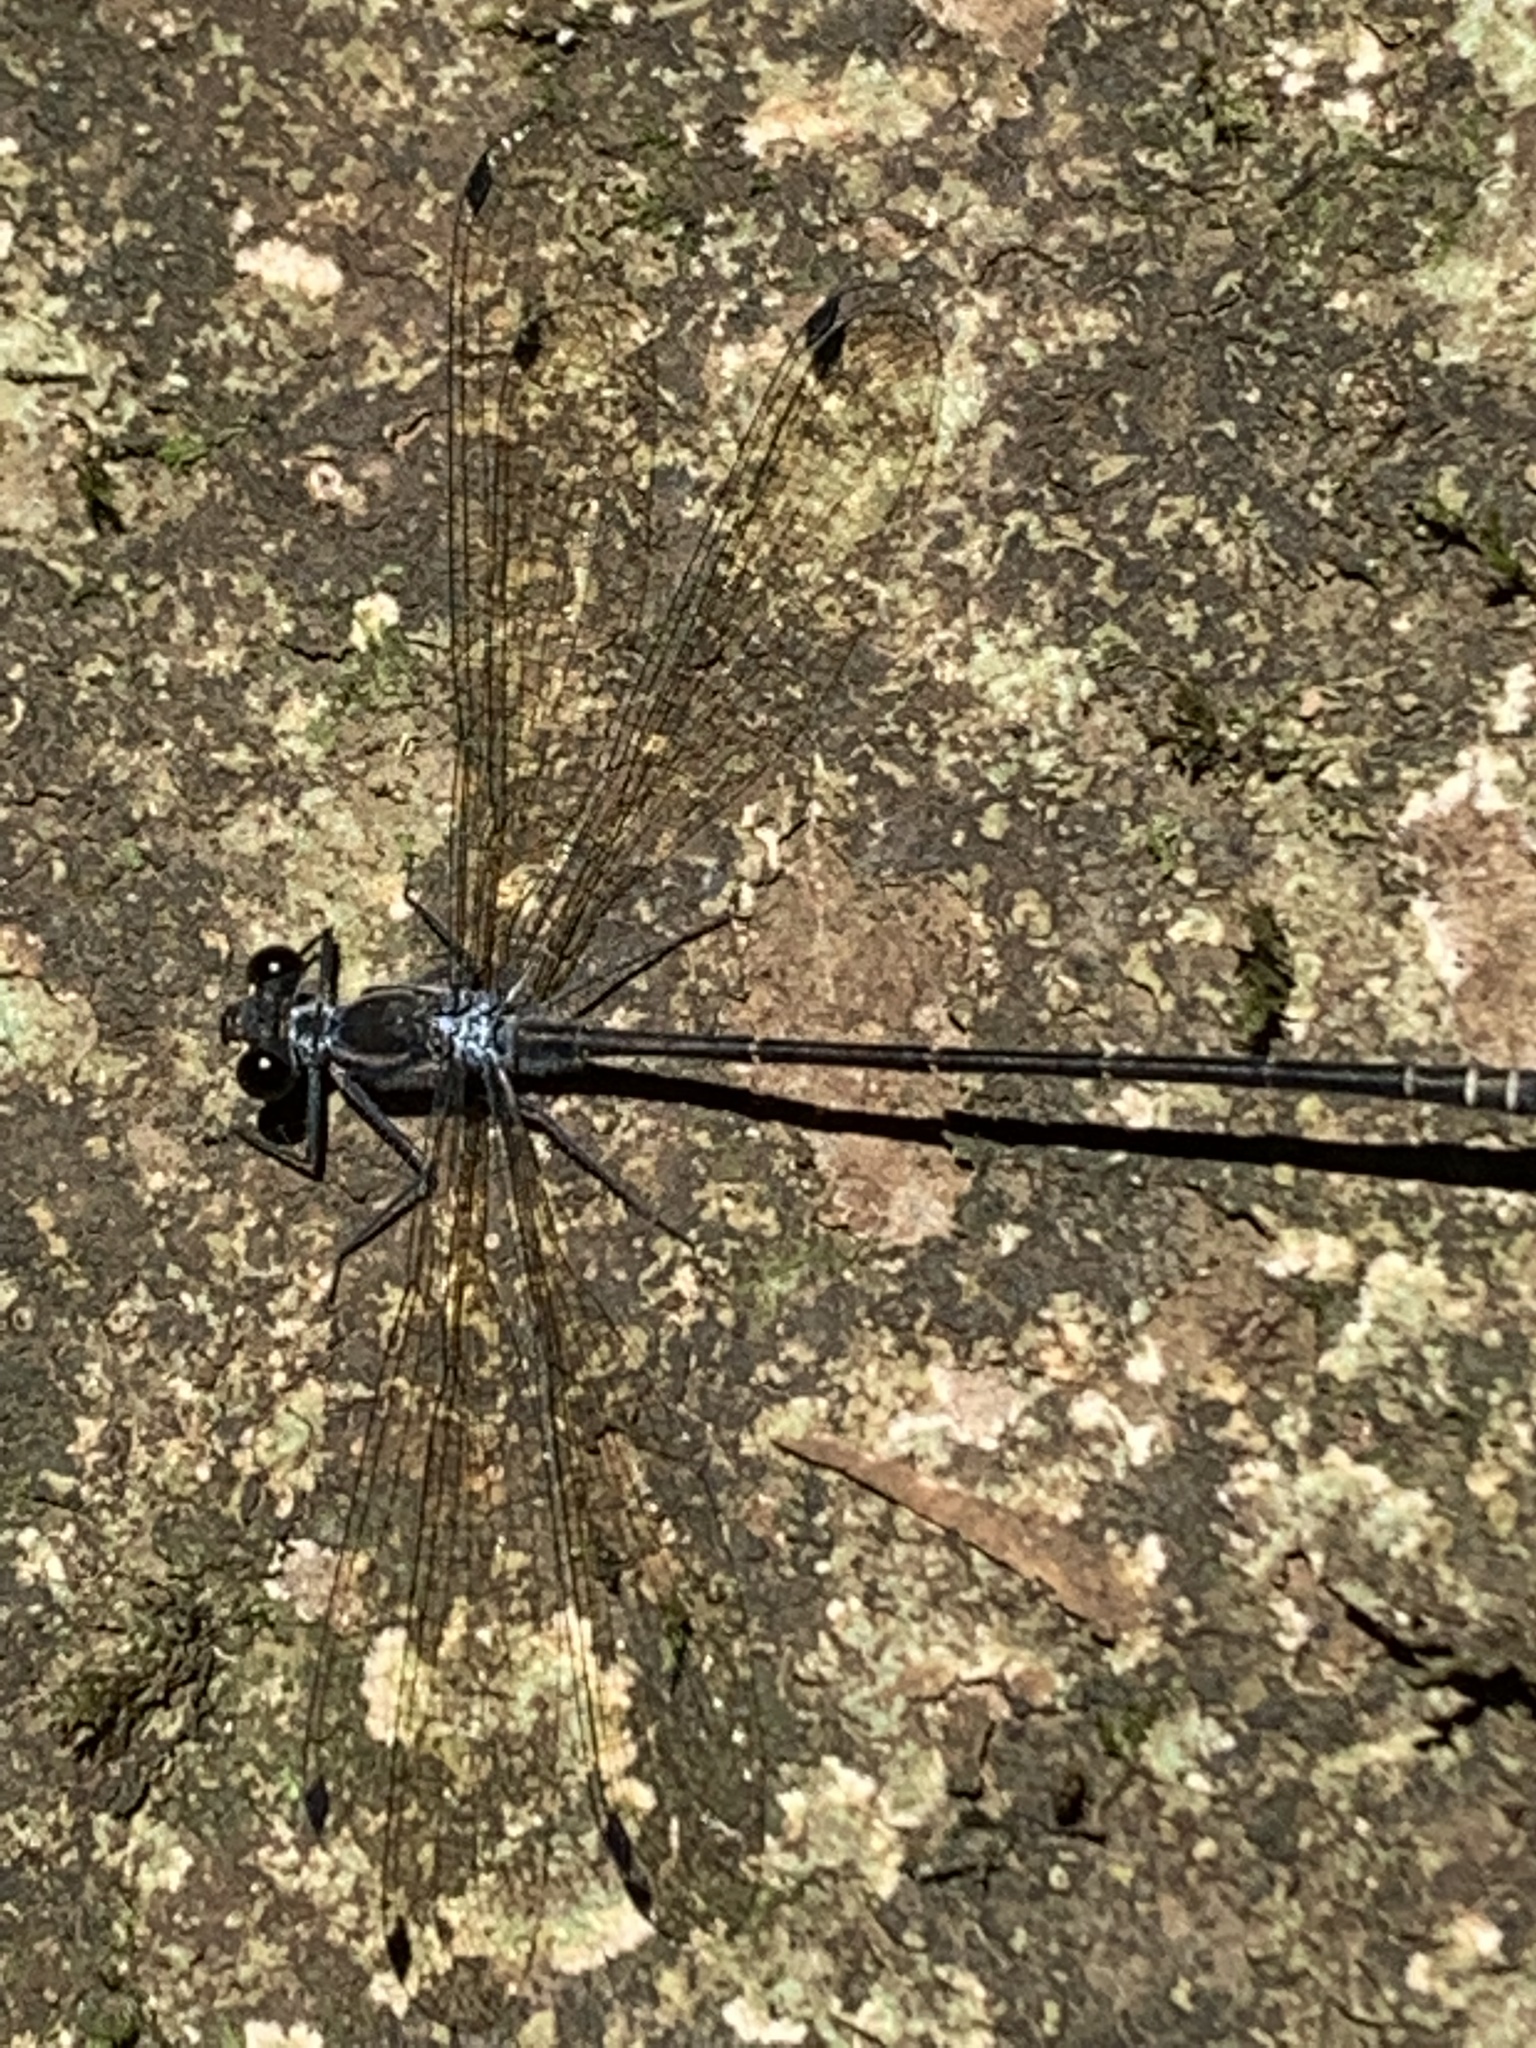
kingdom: Animalia
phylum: Arthropoda
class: Insecta
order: Odonata
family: Argiolestidae
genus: Austroargiolestes
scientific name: Austroargiolestes icteromelas
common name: Common flatwing
